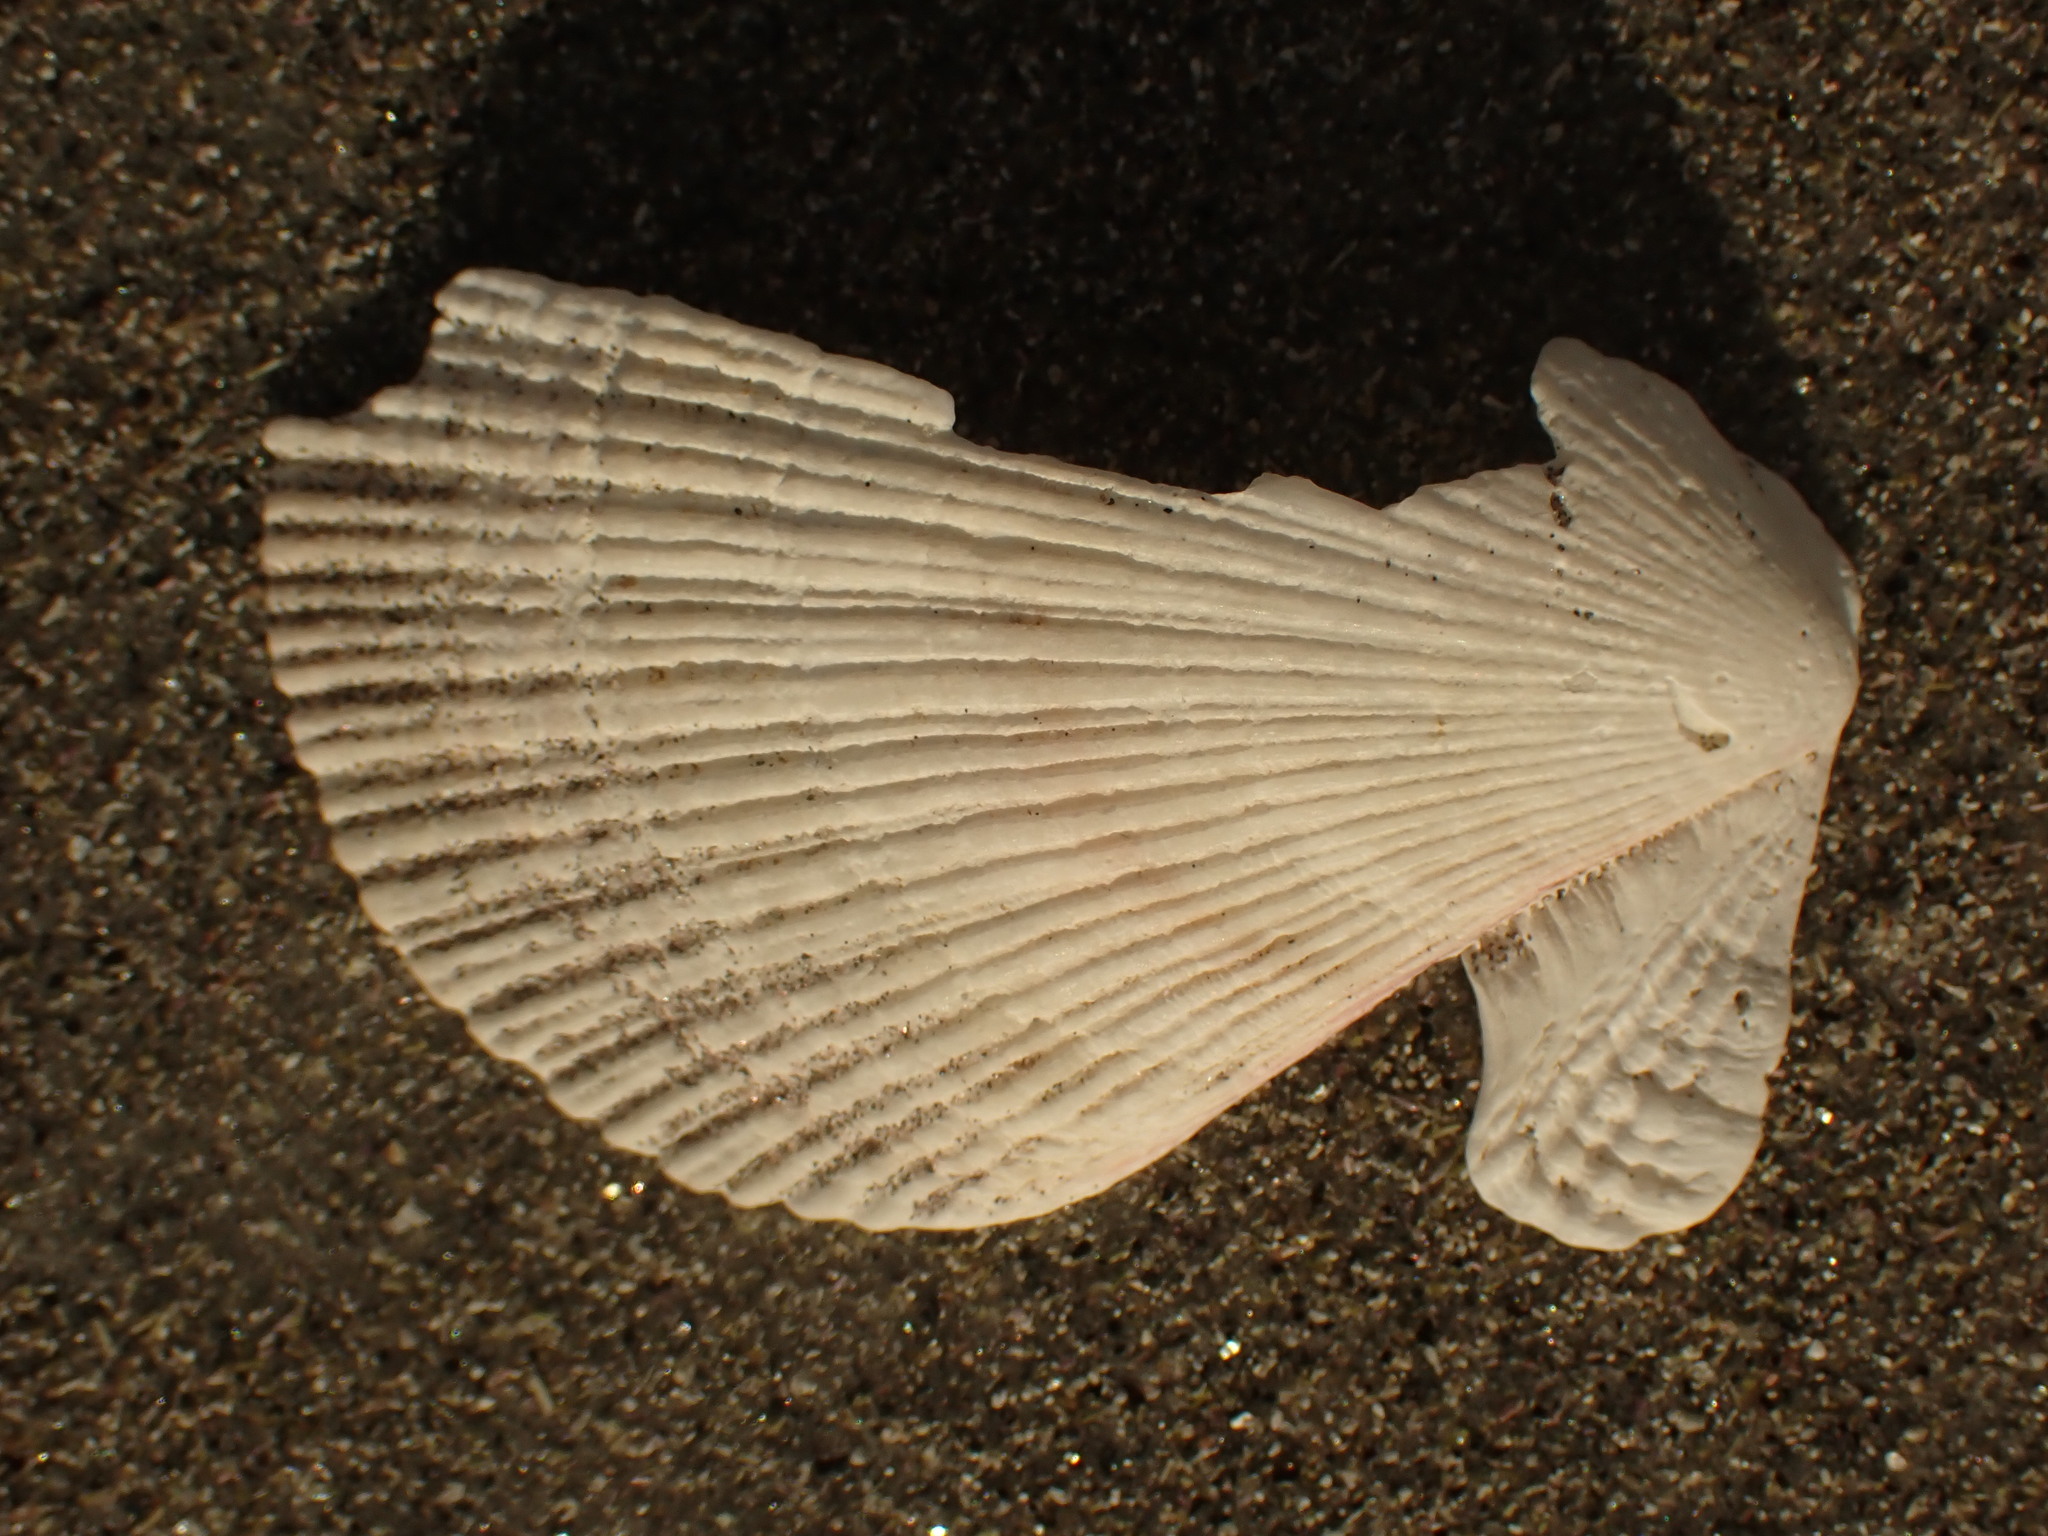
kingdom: Animalia
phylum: Mollusca
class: Bivalvia
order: Pectinida
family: Pectinidae
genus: Chlamys
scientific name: Chlamys islandica
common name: Iceland scallop
